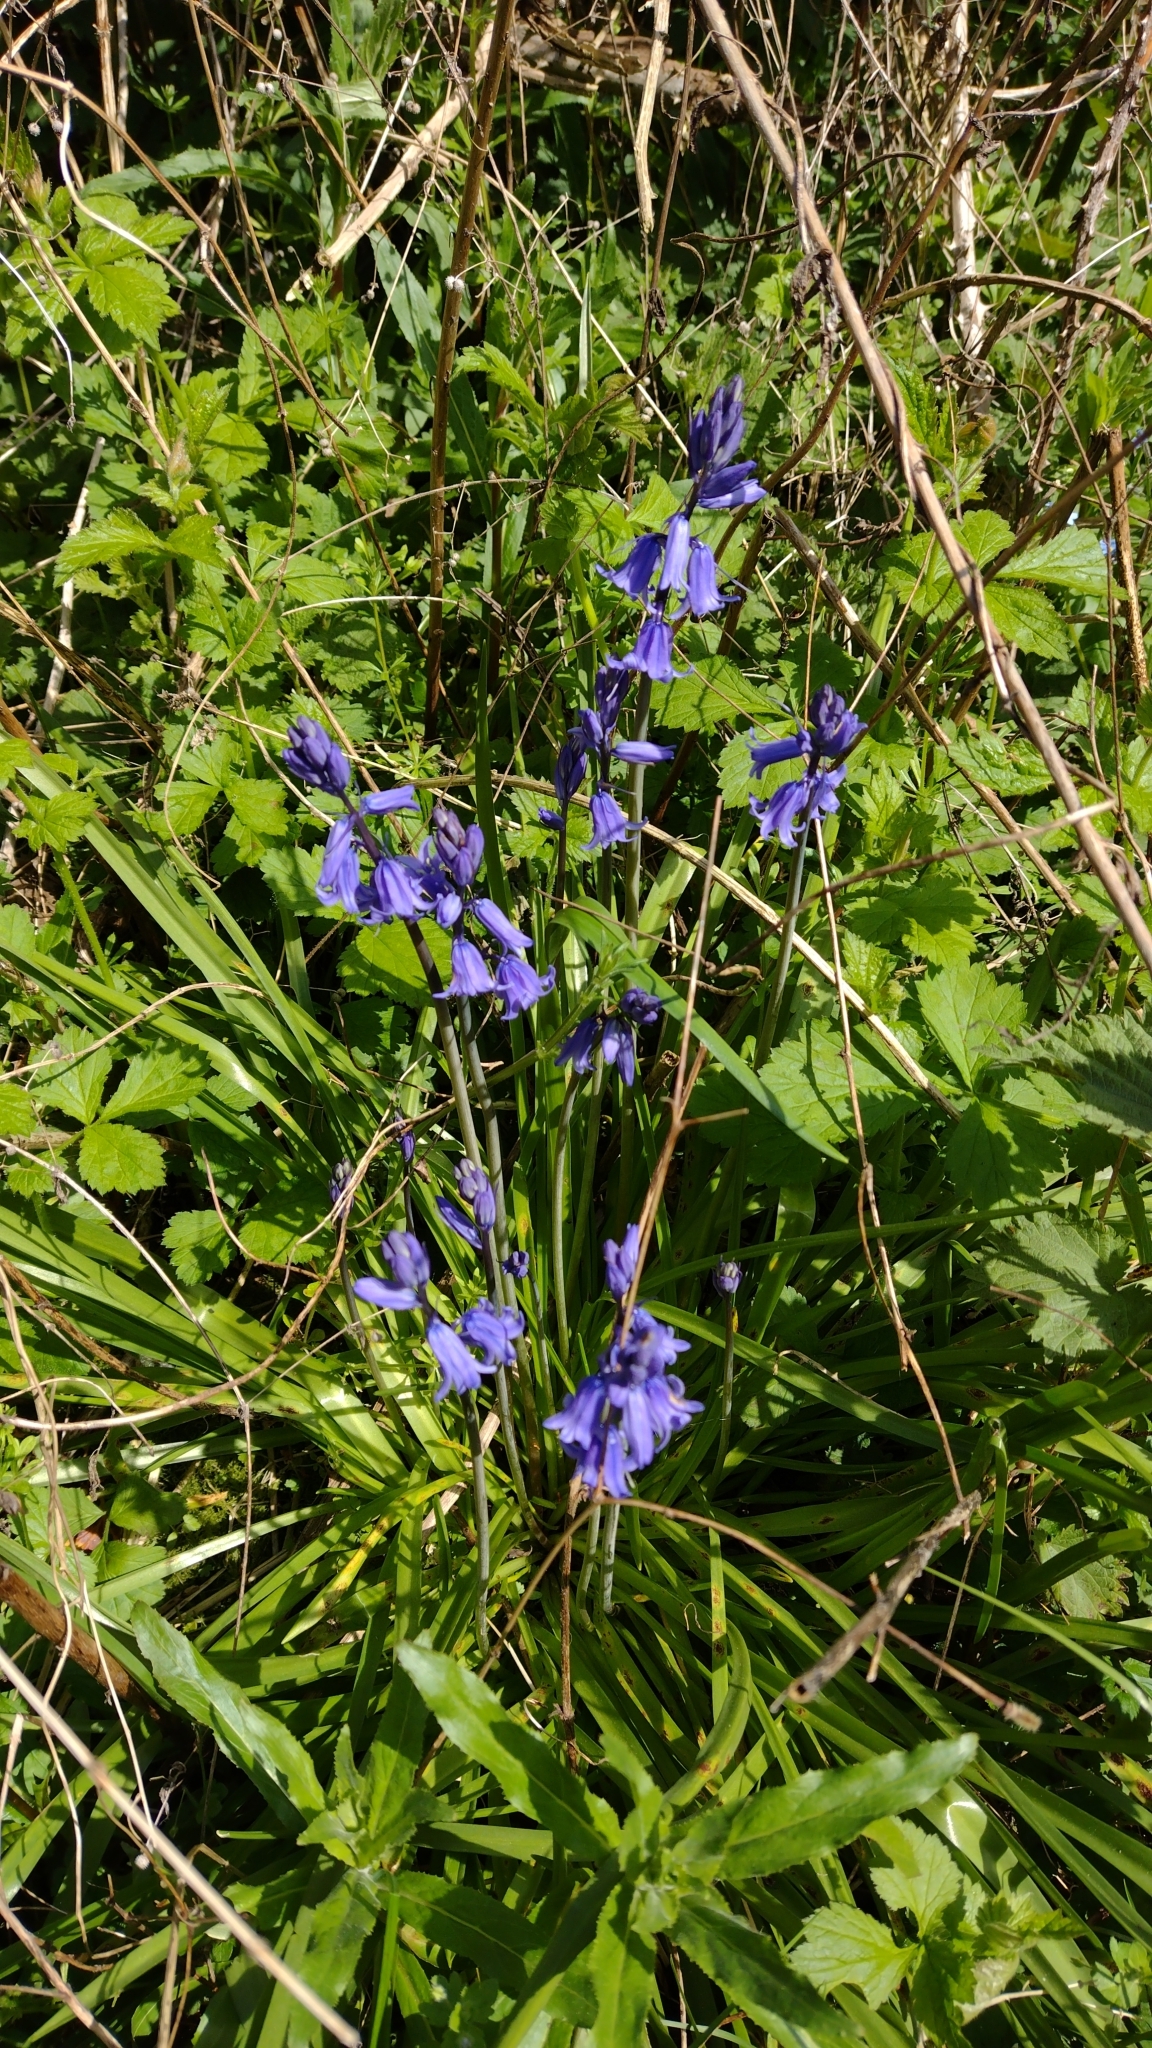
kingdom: Plantae
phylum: Tracheophyta
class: Liliopsida
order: Asparagales
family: Asparagaceae
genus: Hyacinthoides
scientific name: Hyacinthoides massartiana
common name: Hyacinthoides
